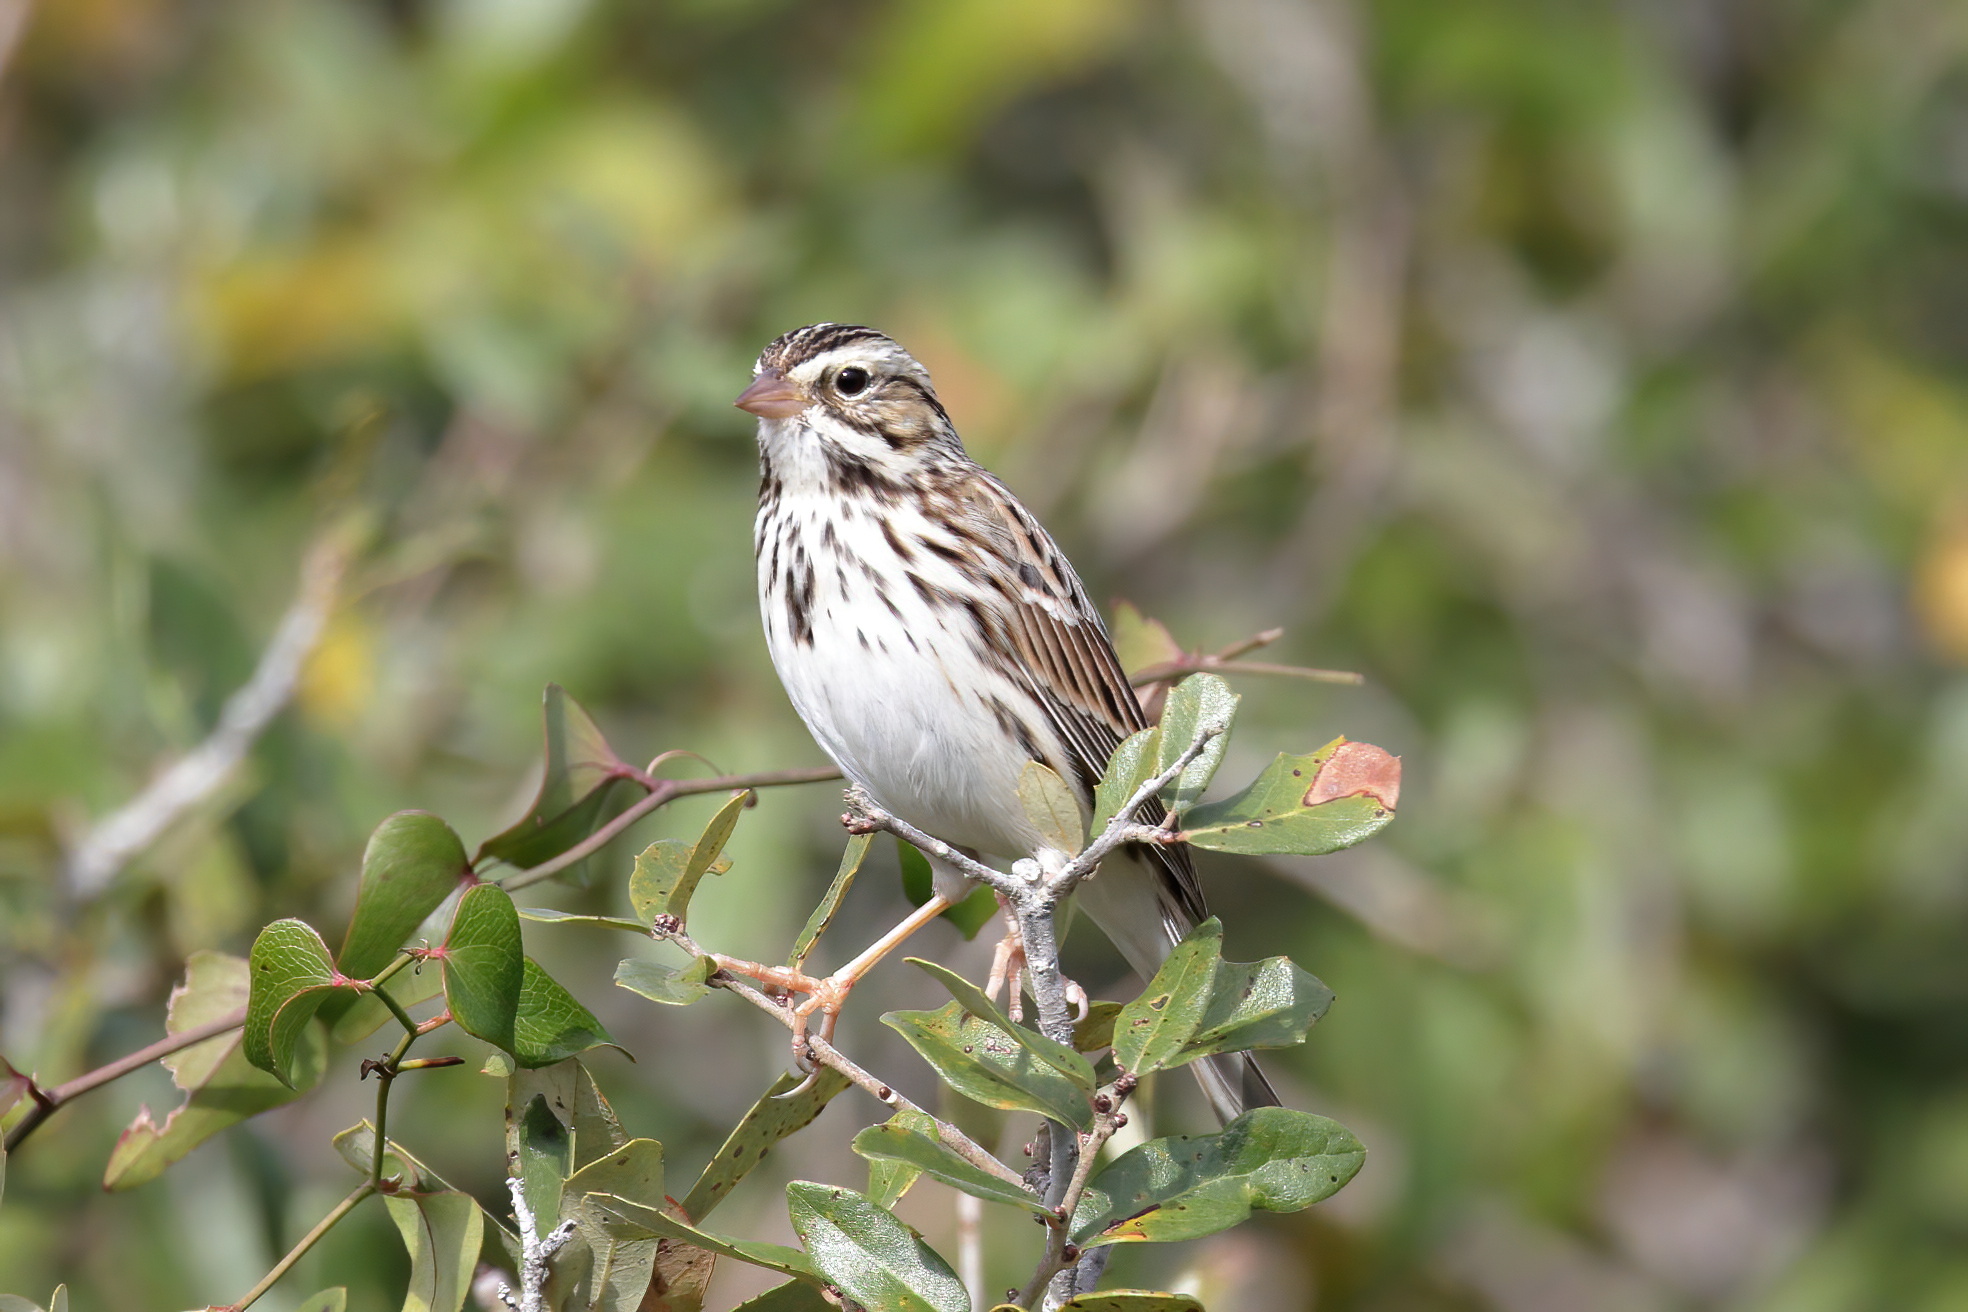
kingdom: Animalia
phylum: Chordata
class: Aves
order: Passeriformes
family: Passerellidae
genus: Passerculus
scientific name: Passerculus sandwichensis
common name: Savannah sparrow
